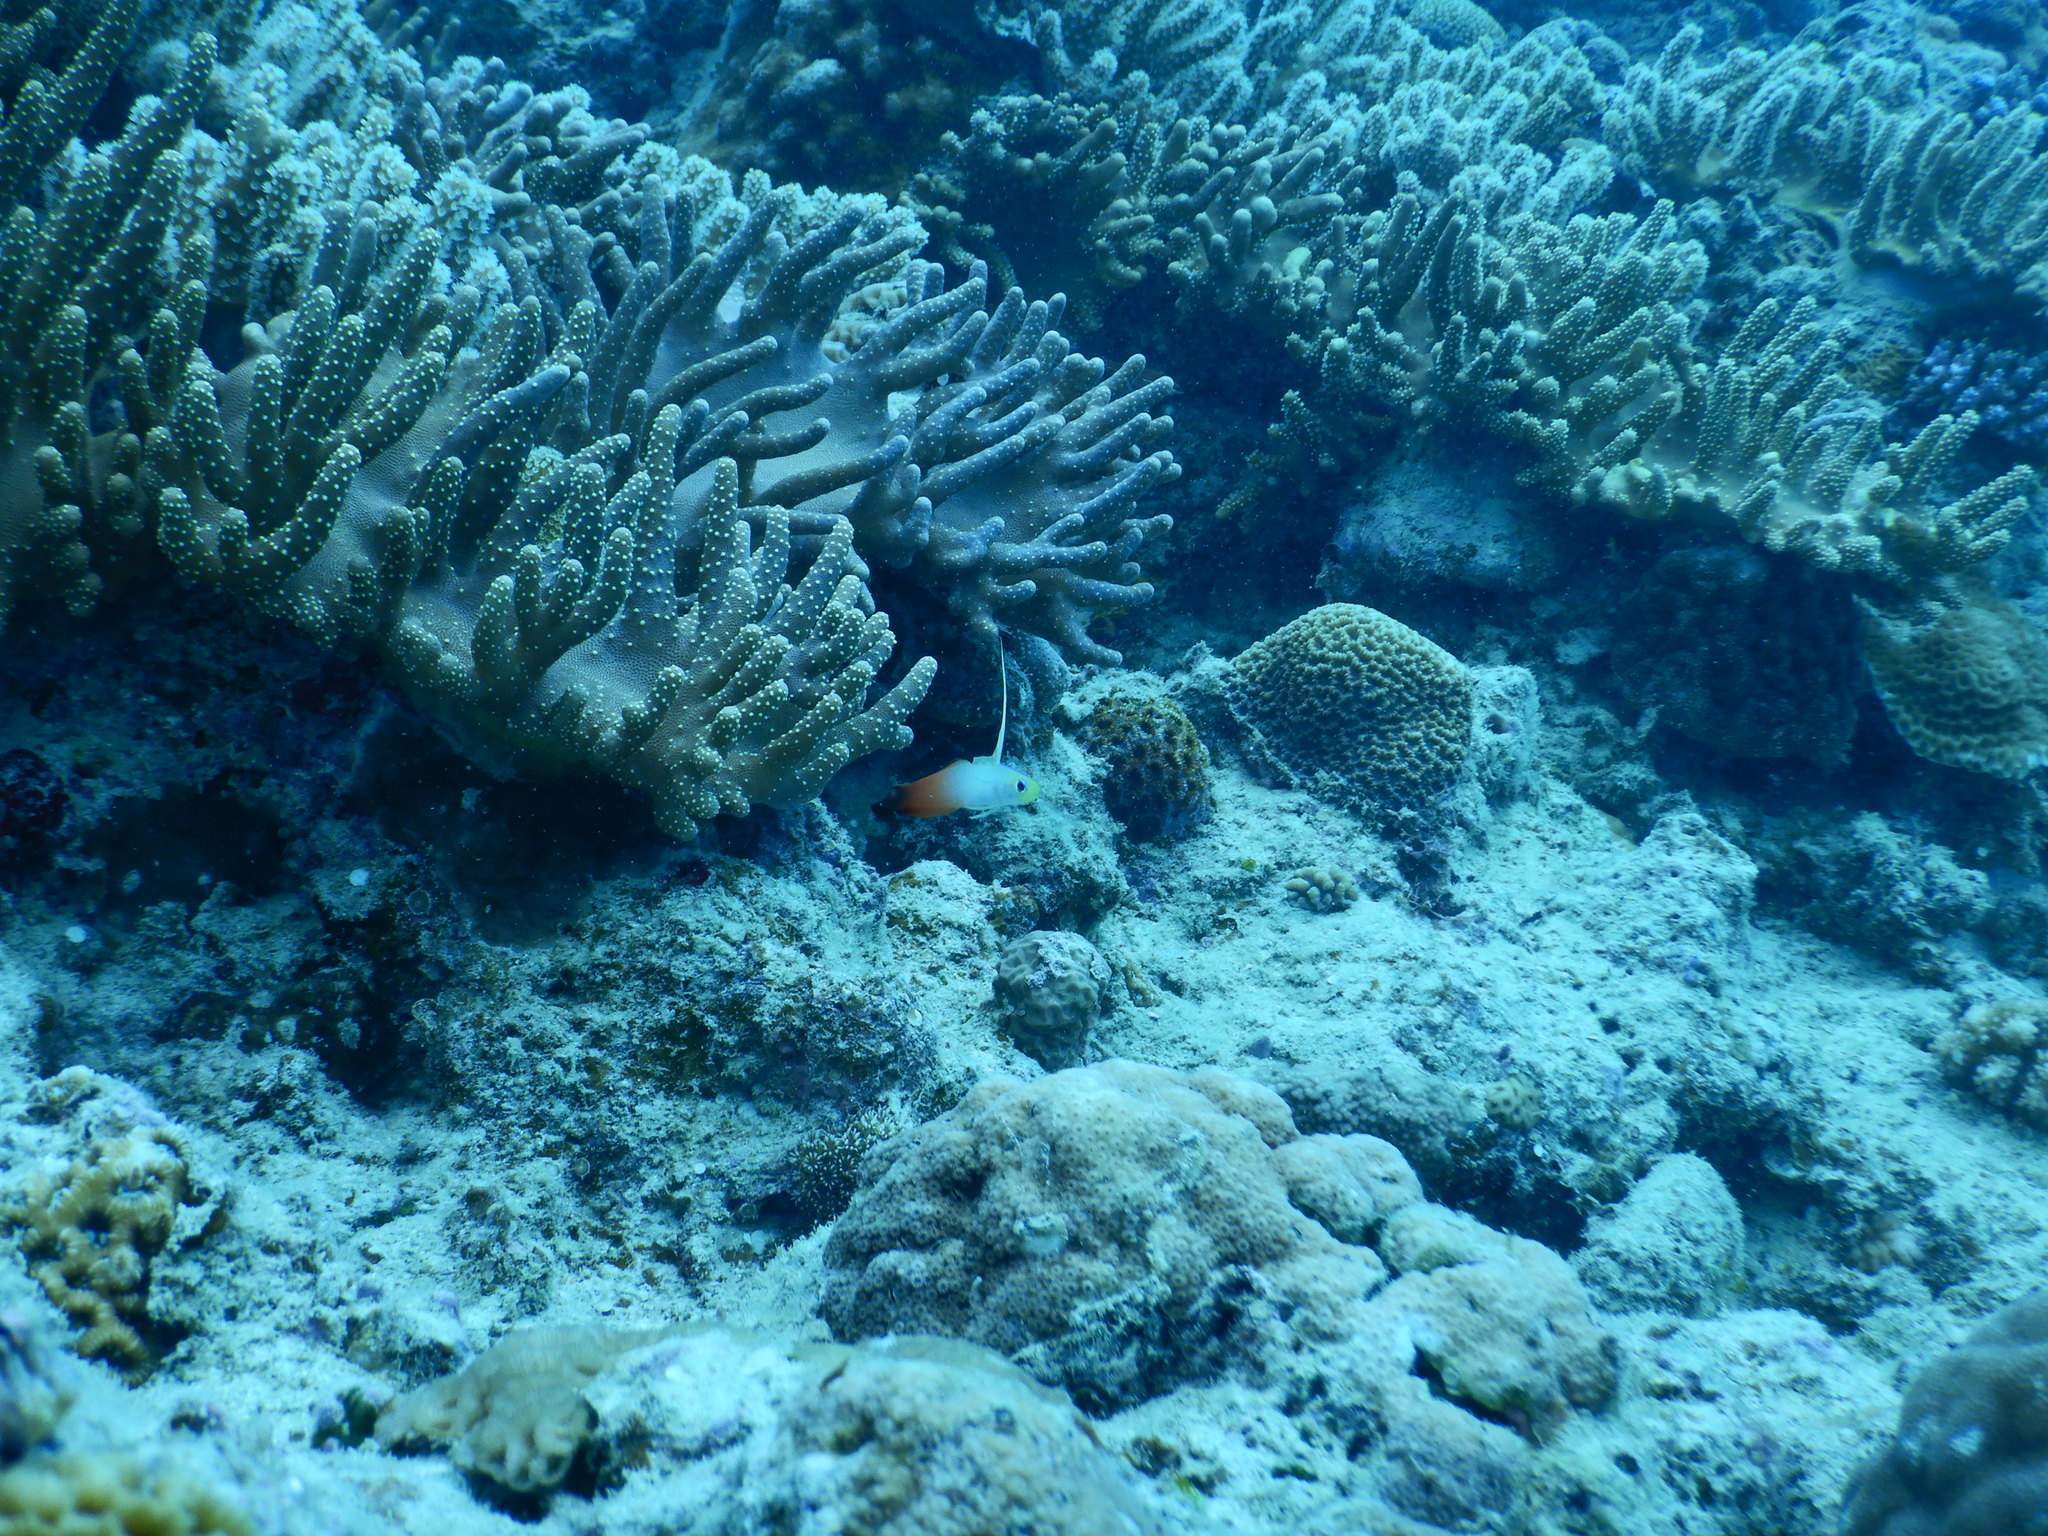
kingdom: Animalia
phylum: Chordata
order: Perciformes
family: Microdesmidae
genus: Nemateleotris
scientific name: Nemateleotris magnifica
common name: Fire goby
